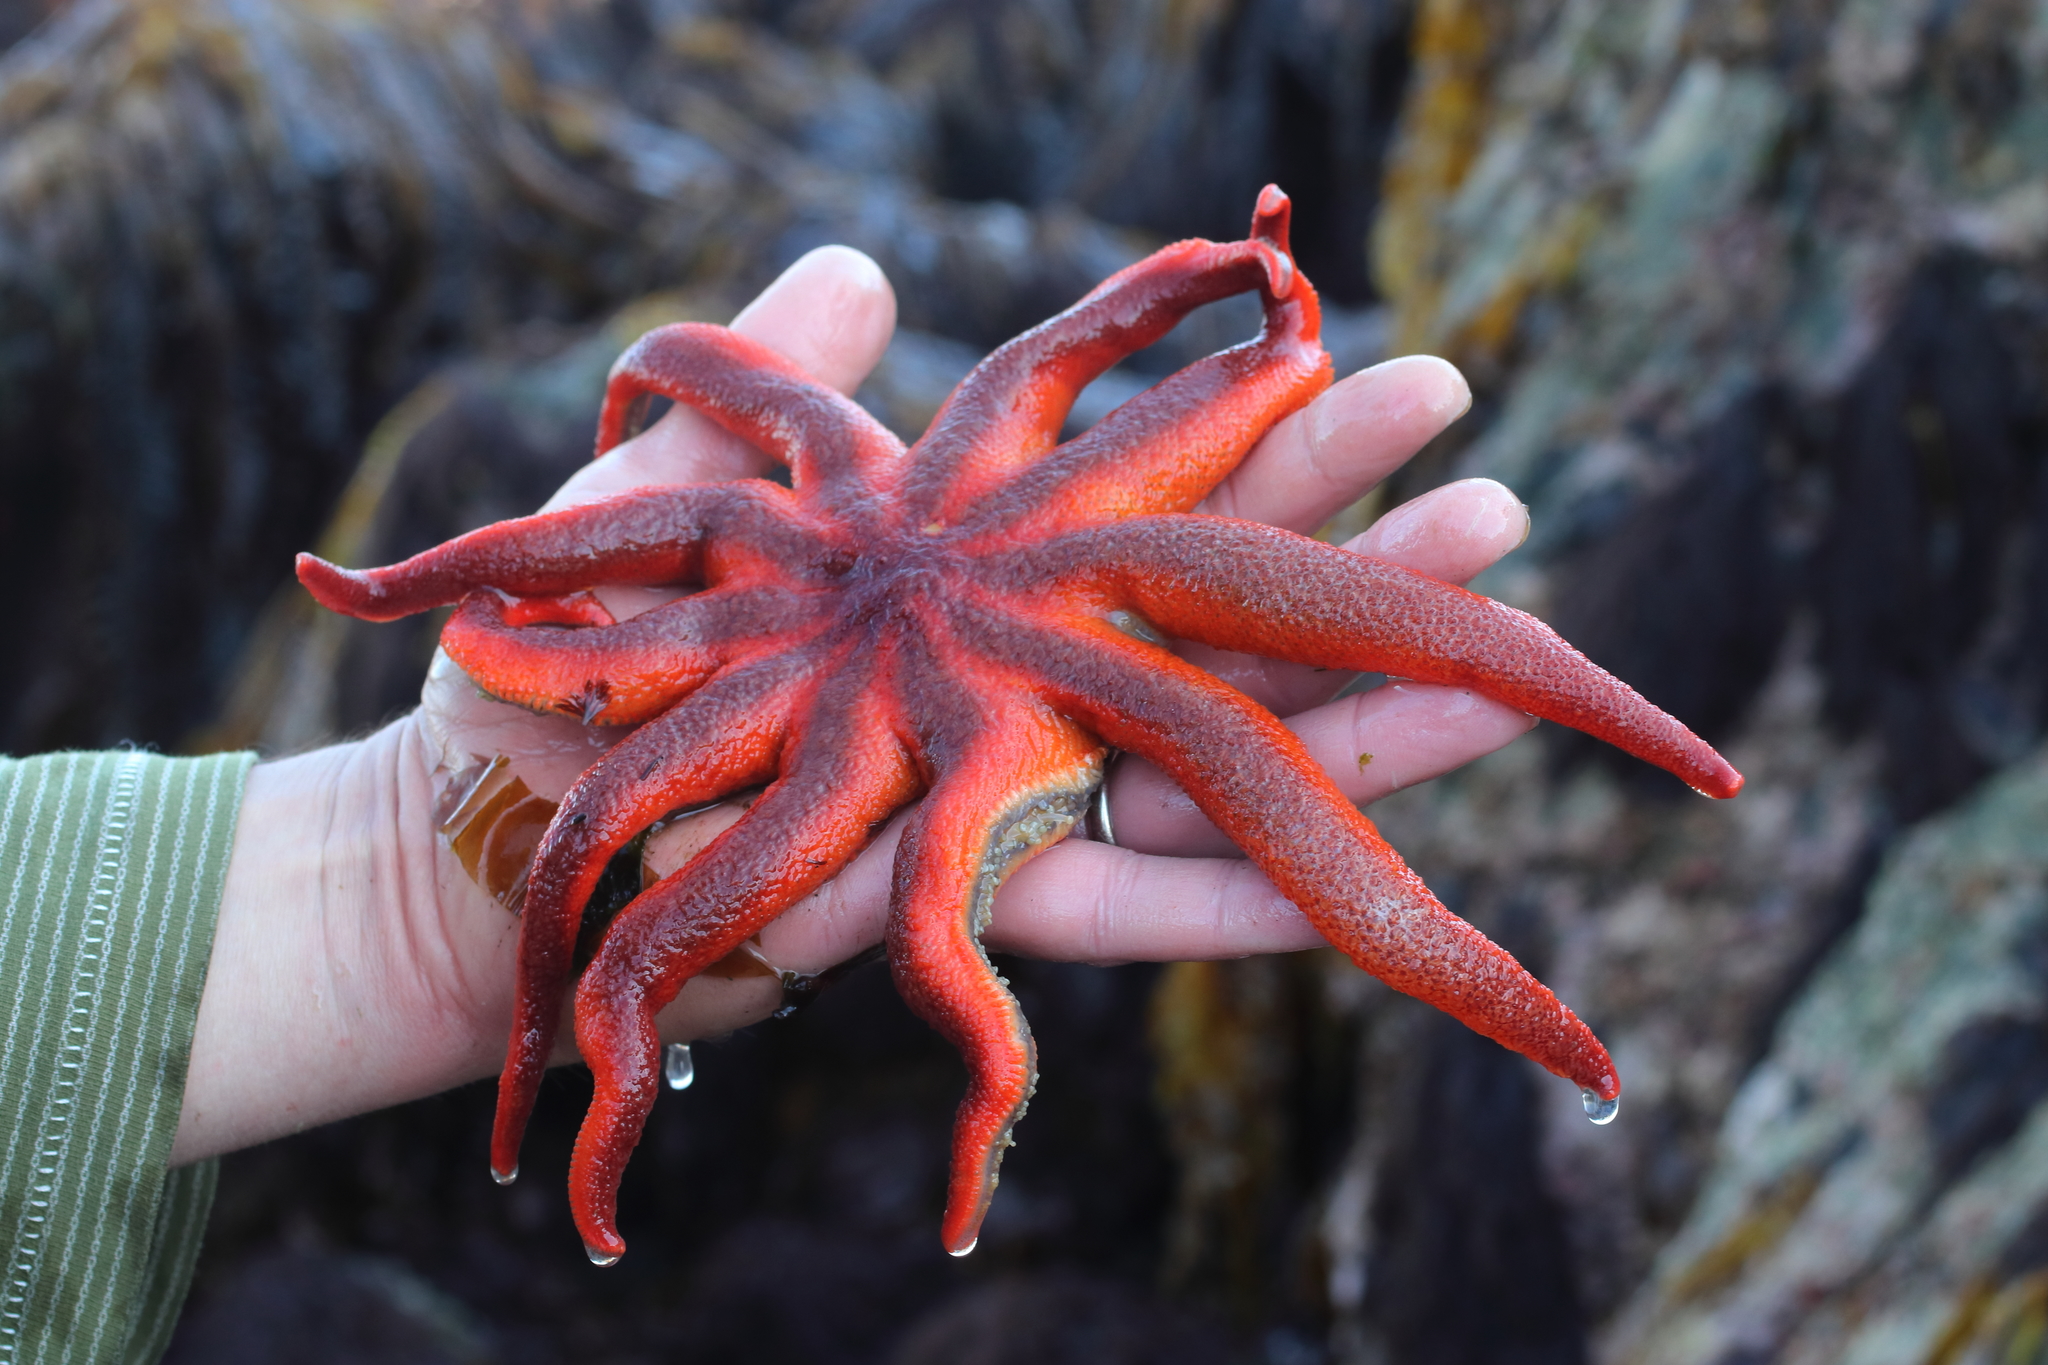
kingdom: Animalia
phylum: Echinodermata
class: Asteroidea
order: Valvatida
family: Solasteridae
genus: Solaster
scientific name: Solaster stimpsoni
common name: Orange sun star
